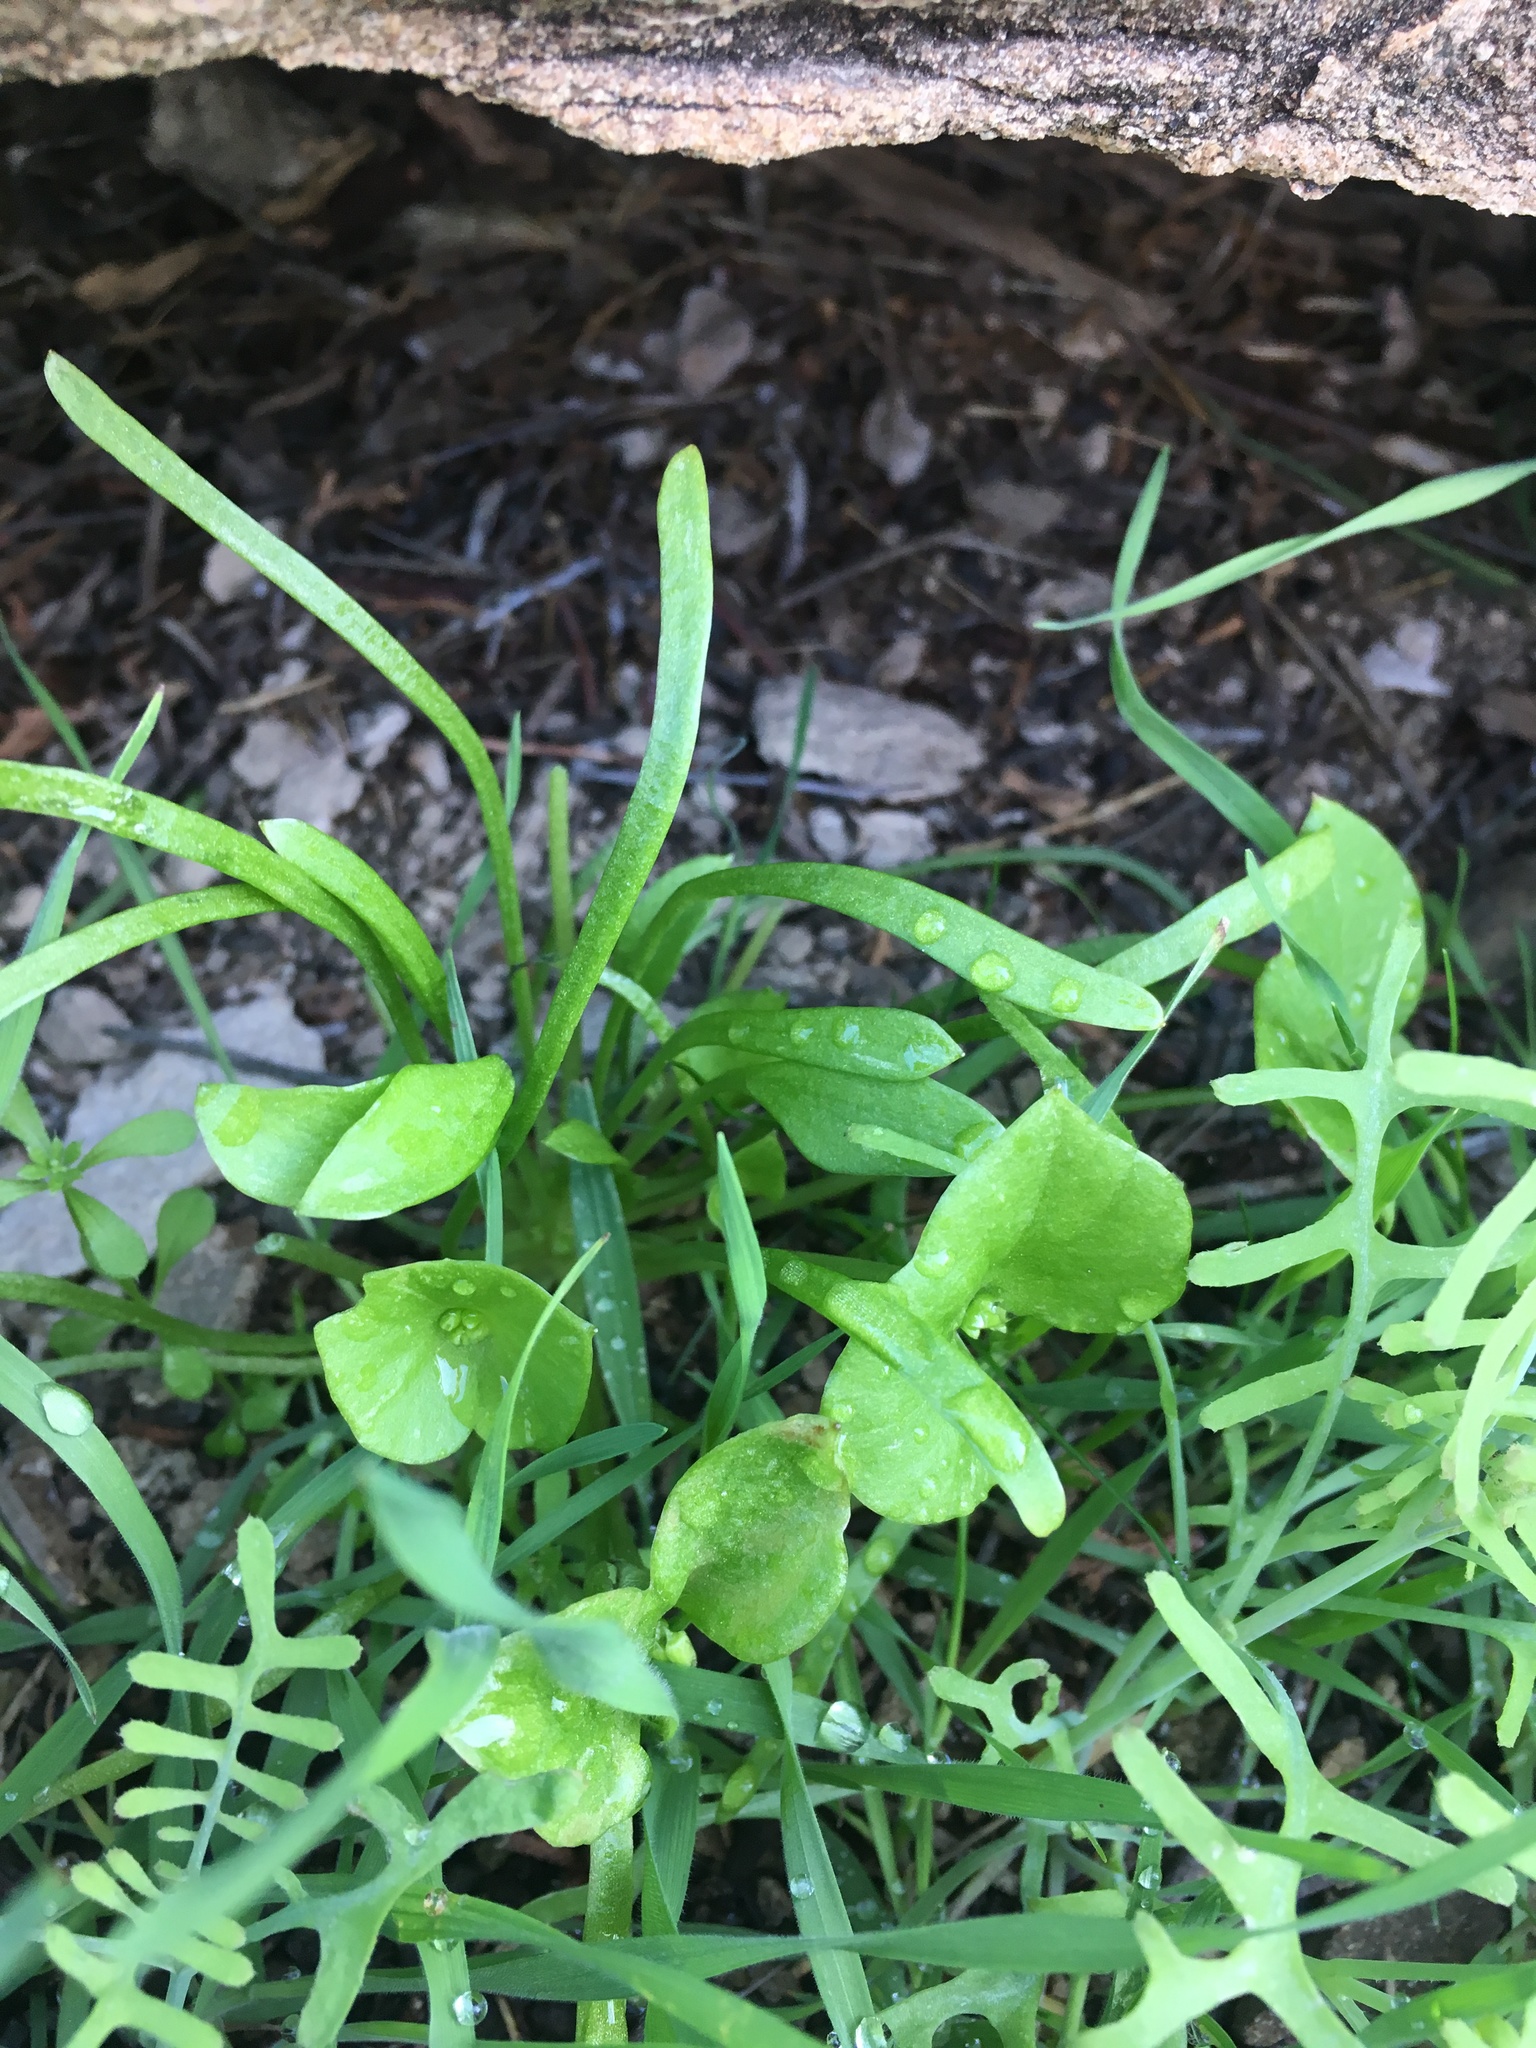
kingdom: Plantae
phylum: Tracheophyta
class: Magnoliopsida
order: Caryophyllales
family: Montiaceae
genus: Claytonia
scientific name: Claytonia parviflora
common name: Indian-lettuce
